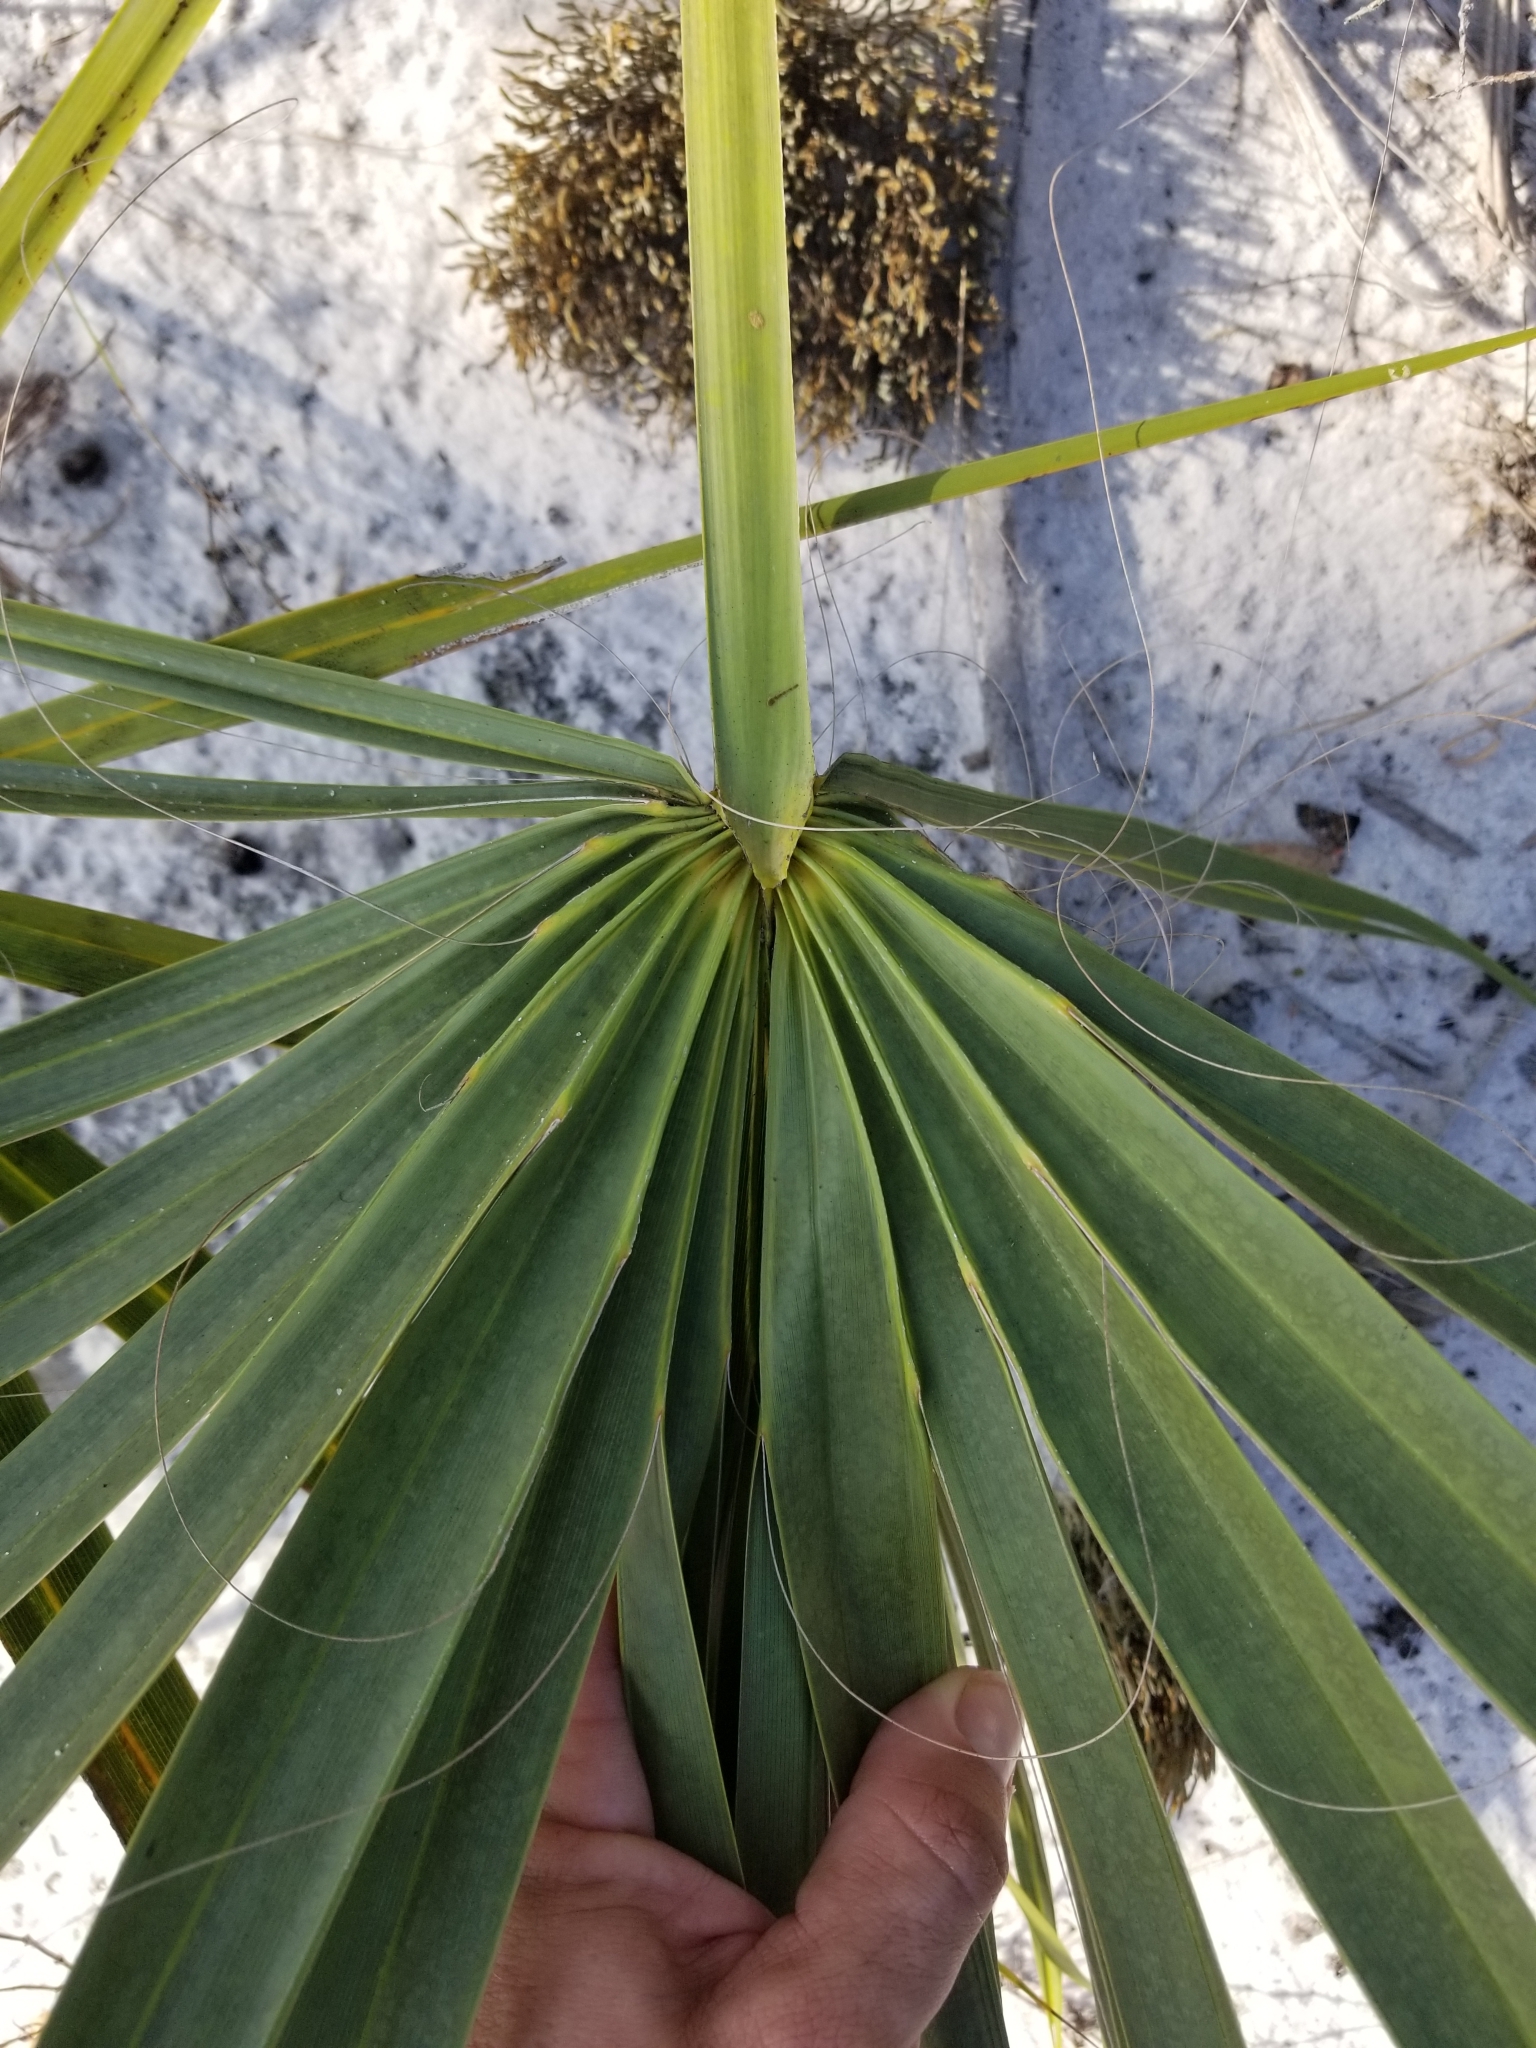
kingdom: Plantae
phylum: Tracheophyta
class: Liliopsida
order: Arecales
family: Arecaceae
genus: Sabal
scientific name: Sabal etonia
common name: Dwarf palmetto
